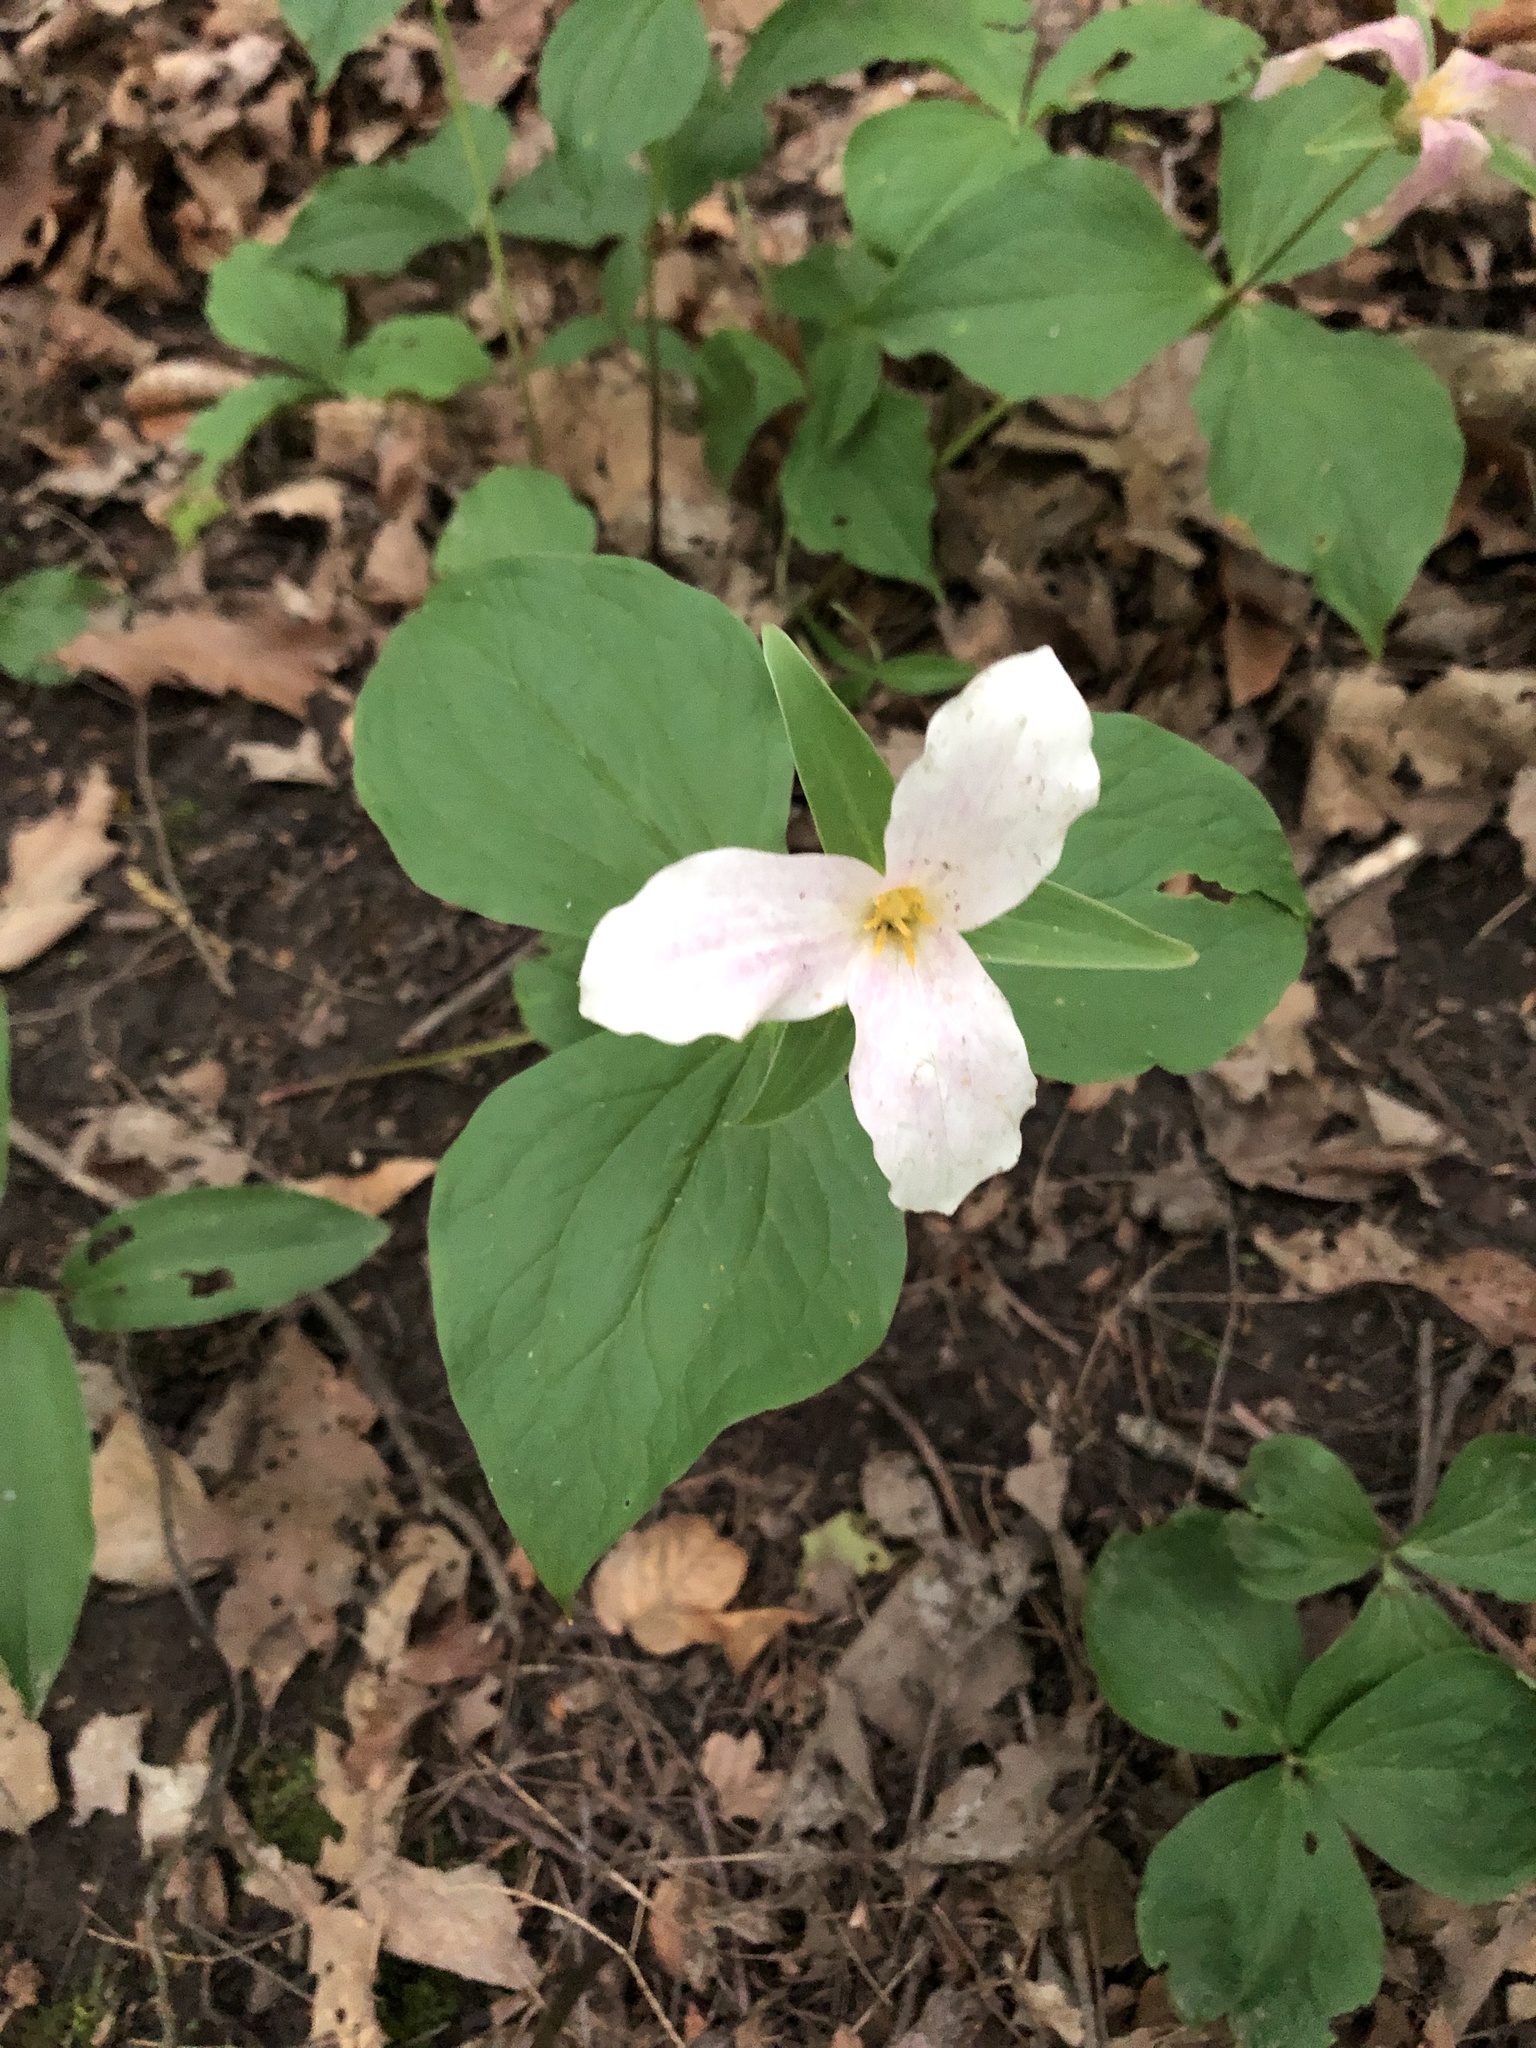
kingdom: Plantae
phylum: Tracheophyta
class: Liliopsida
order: Liliales
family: Melanthiaceae
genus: Trillium
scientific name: Trillium grandiflorum
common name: Great white trillium
